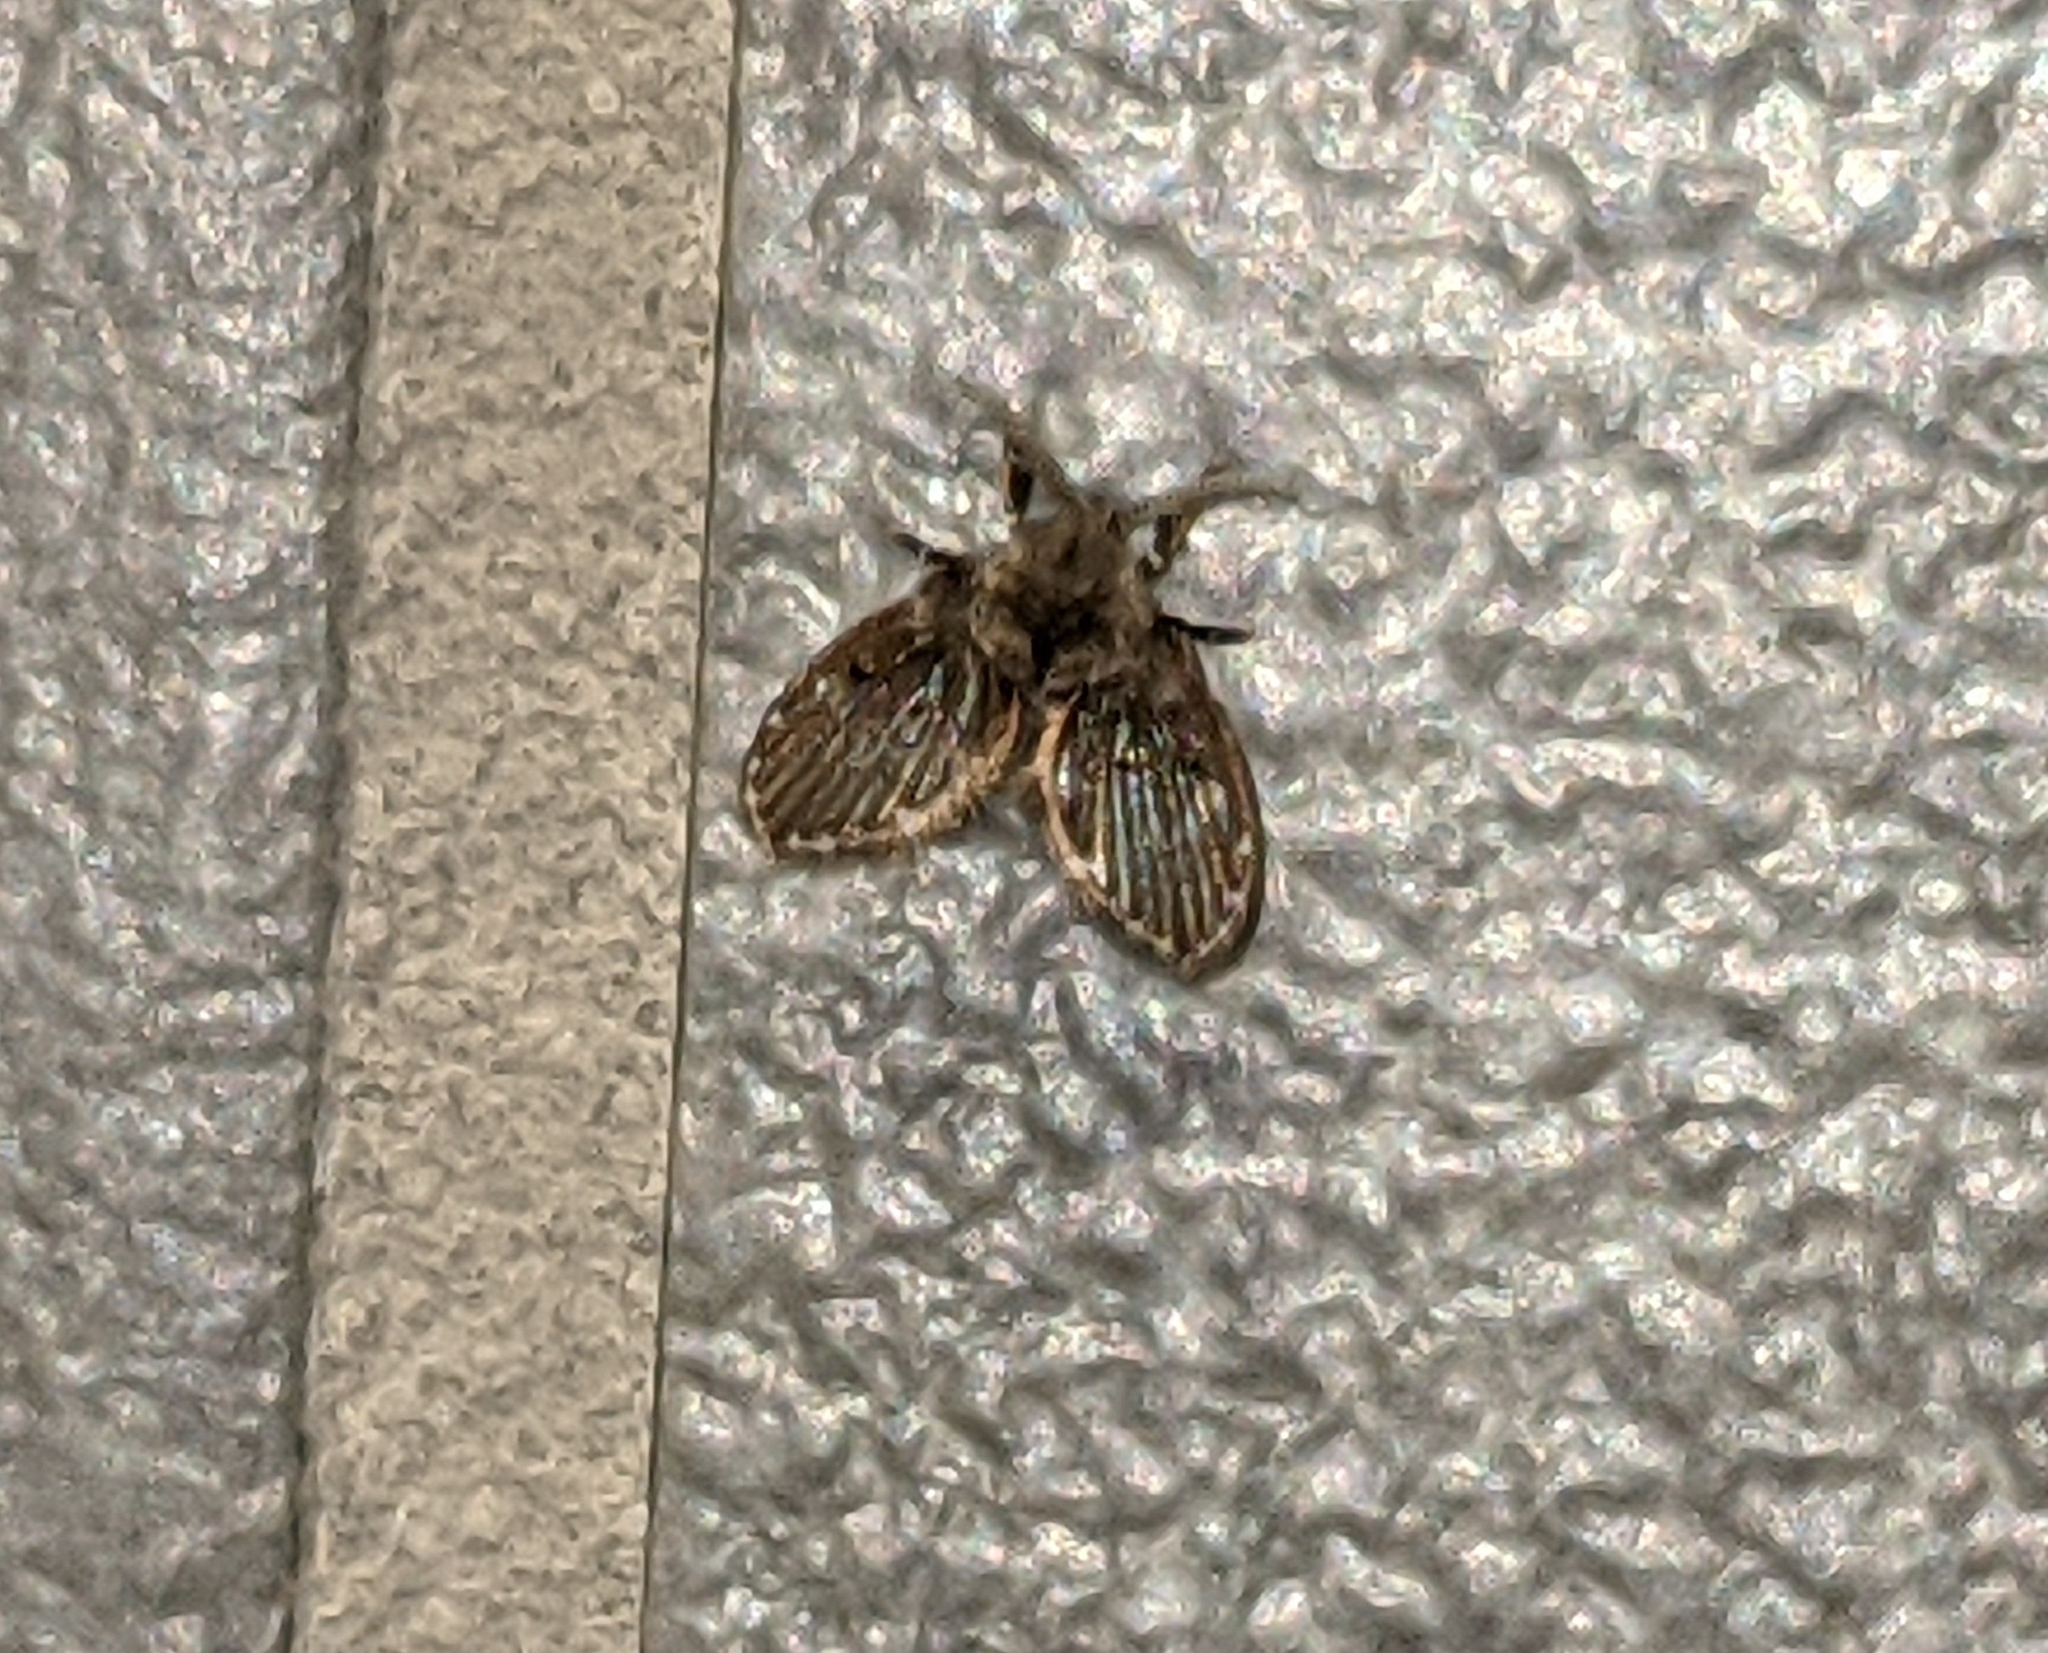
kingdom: Animalia
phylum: Arthropoda
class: Insecta
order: Diptera
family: Psychodidae
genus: Clogmia
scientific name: Clogmia albipunctatus
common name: White-spotted moth fly
